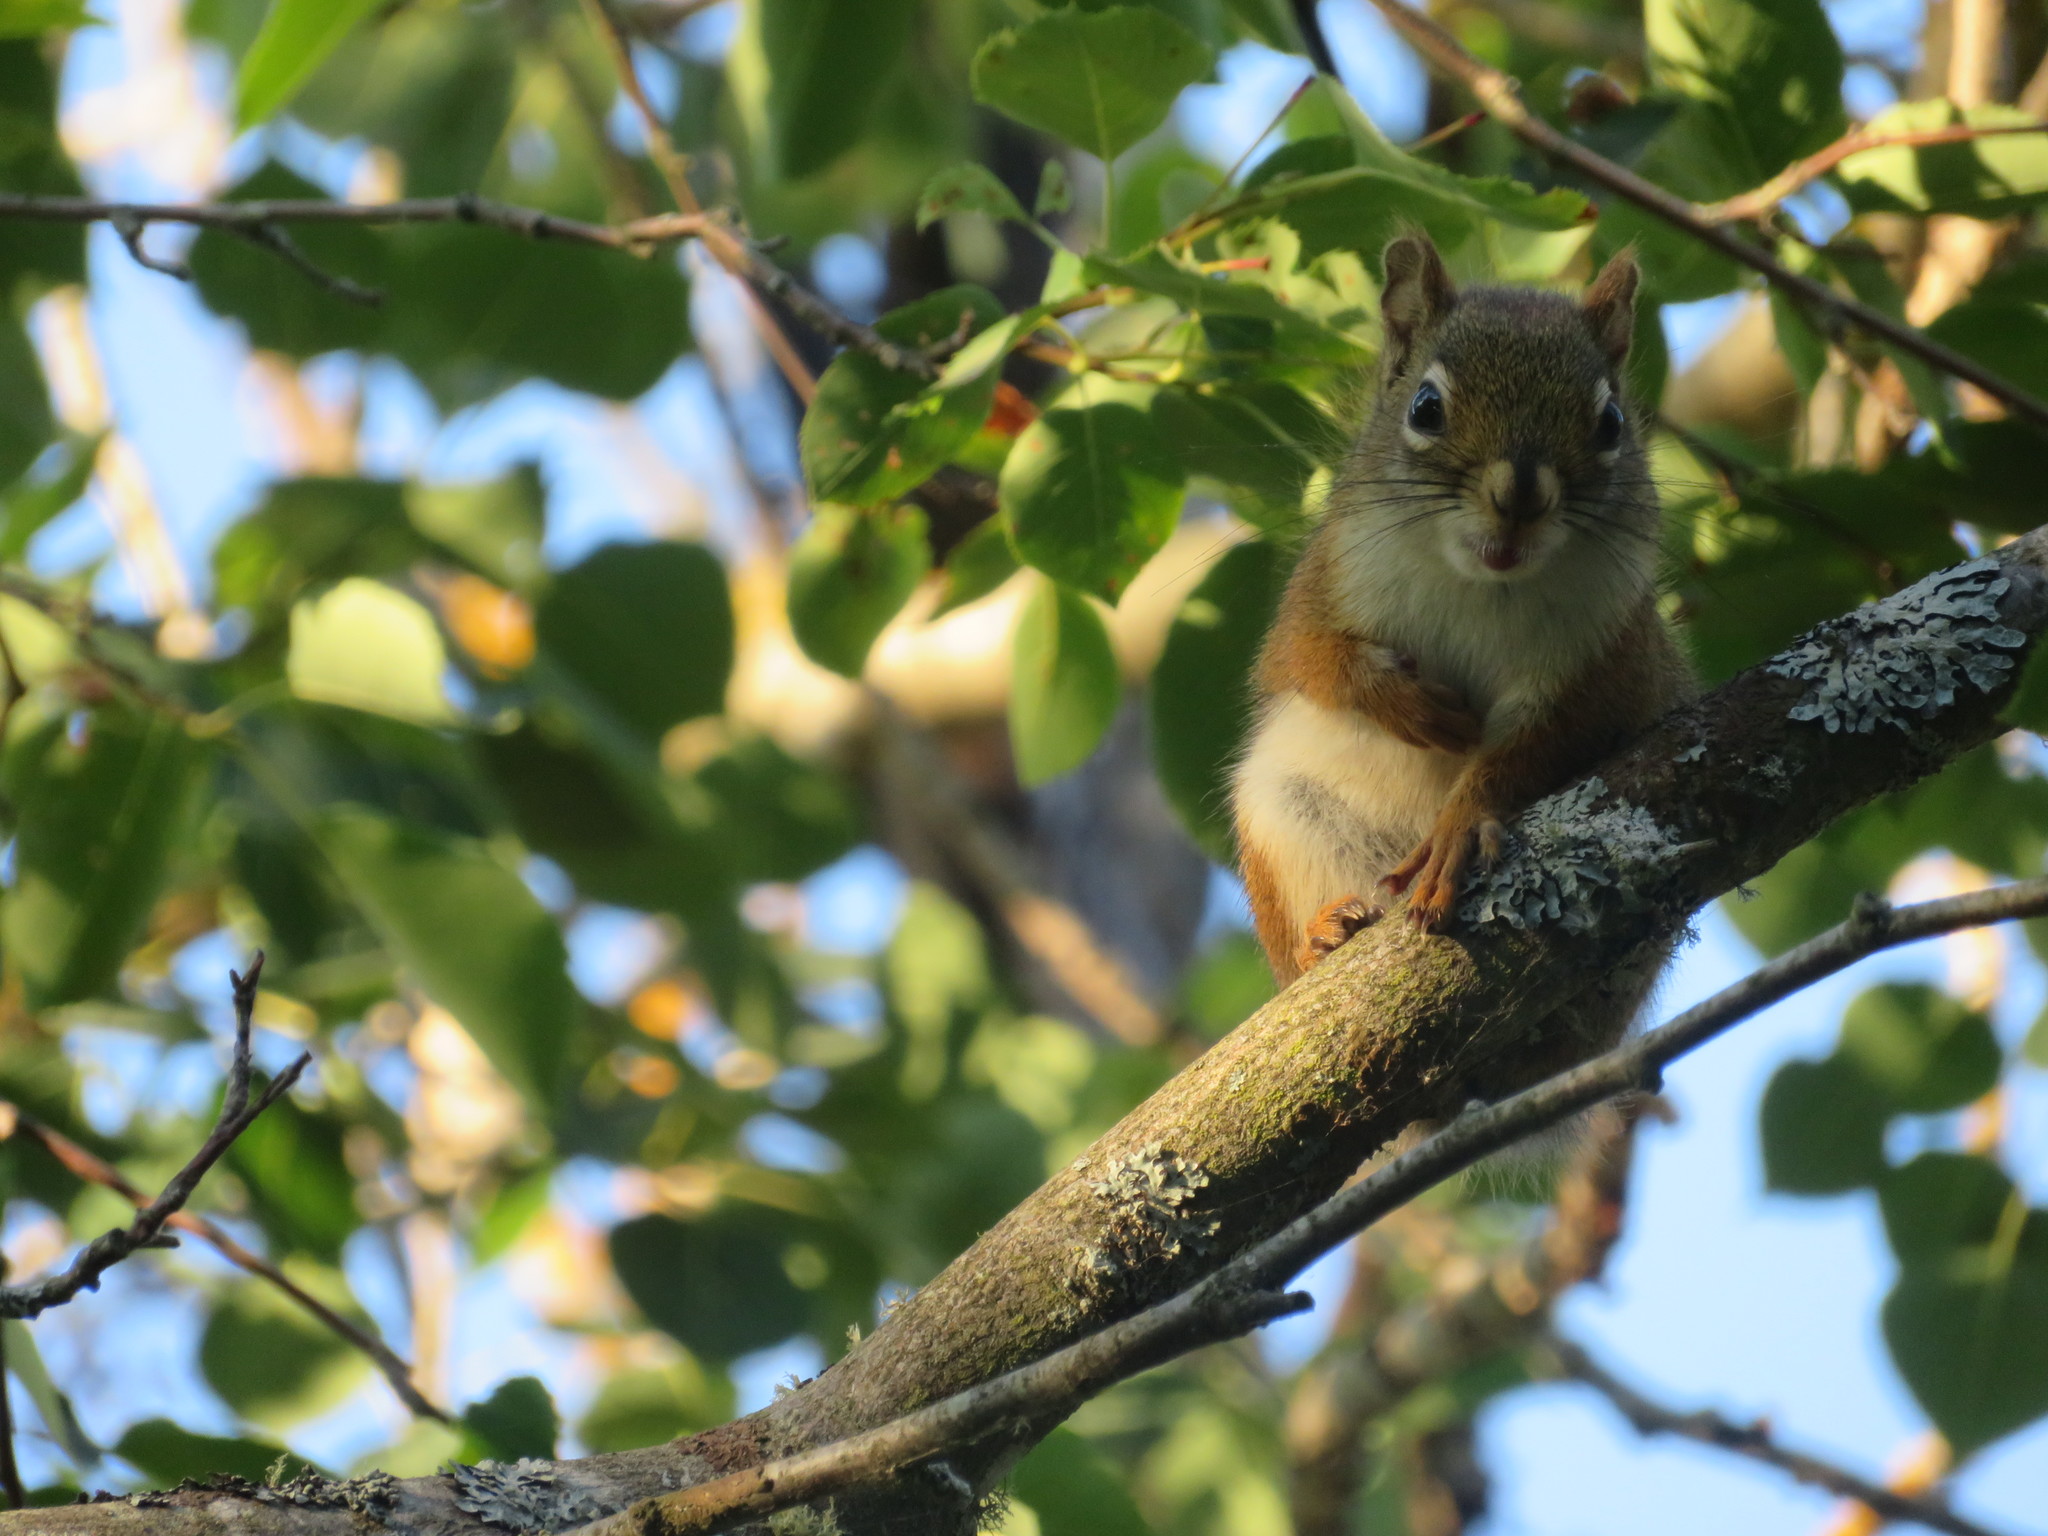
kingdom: Animalia
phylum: Chordata
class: Mammalia
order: Rodentia
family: Sciuridae
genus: Tamiasciurus
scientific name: Tamiasciurus hudsonicus
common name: Red squirrel
